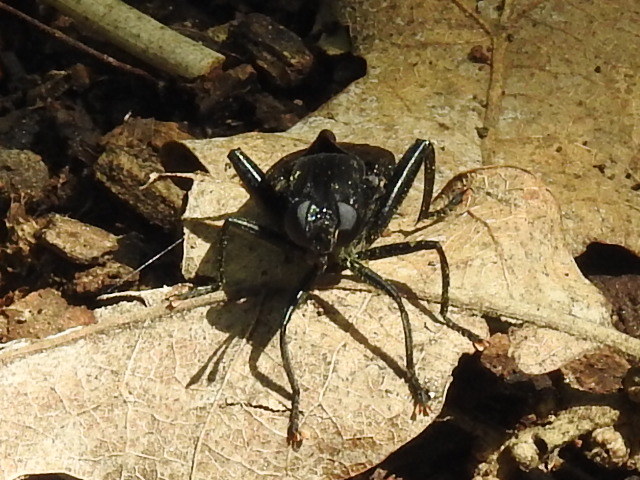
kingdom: Animalia
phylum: Arthropoda
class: Insecta
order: Diptera
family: Mydidae
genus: Mydas
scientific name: Mydas clavatus
